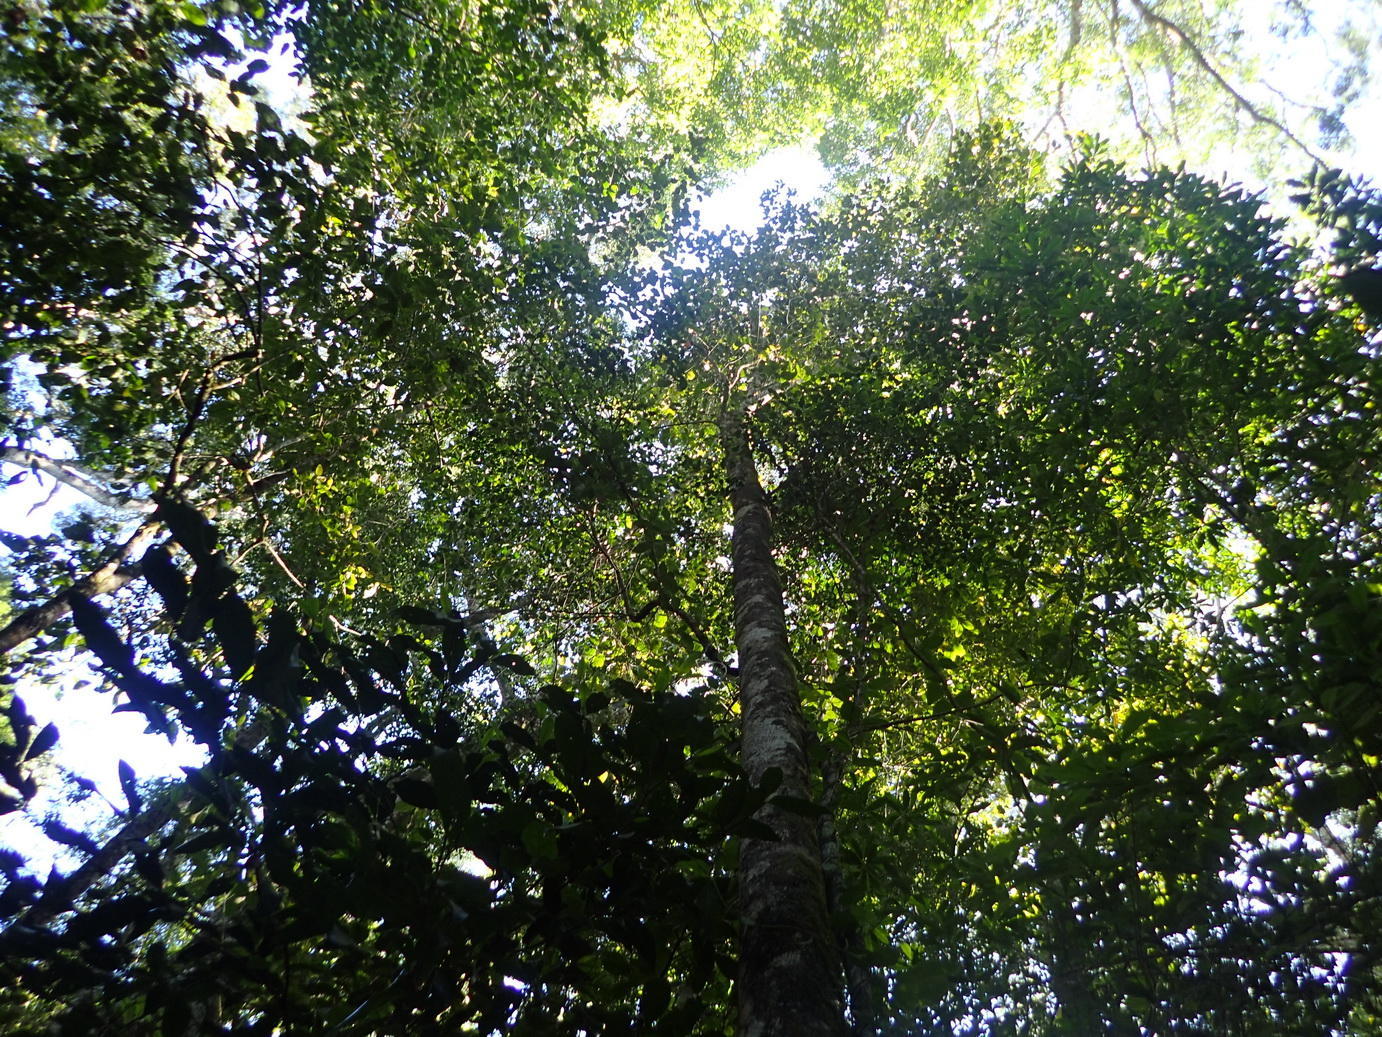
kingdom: Plantae
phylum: Tracheophyta
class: Magnoliopsida
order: Cornales
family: Curtisiaceae
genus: Curtisia
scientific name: Curtisia dentata
